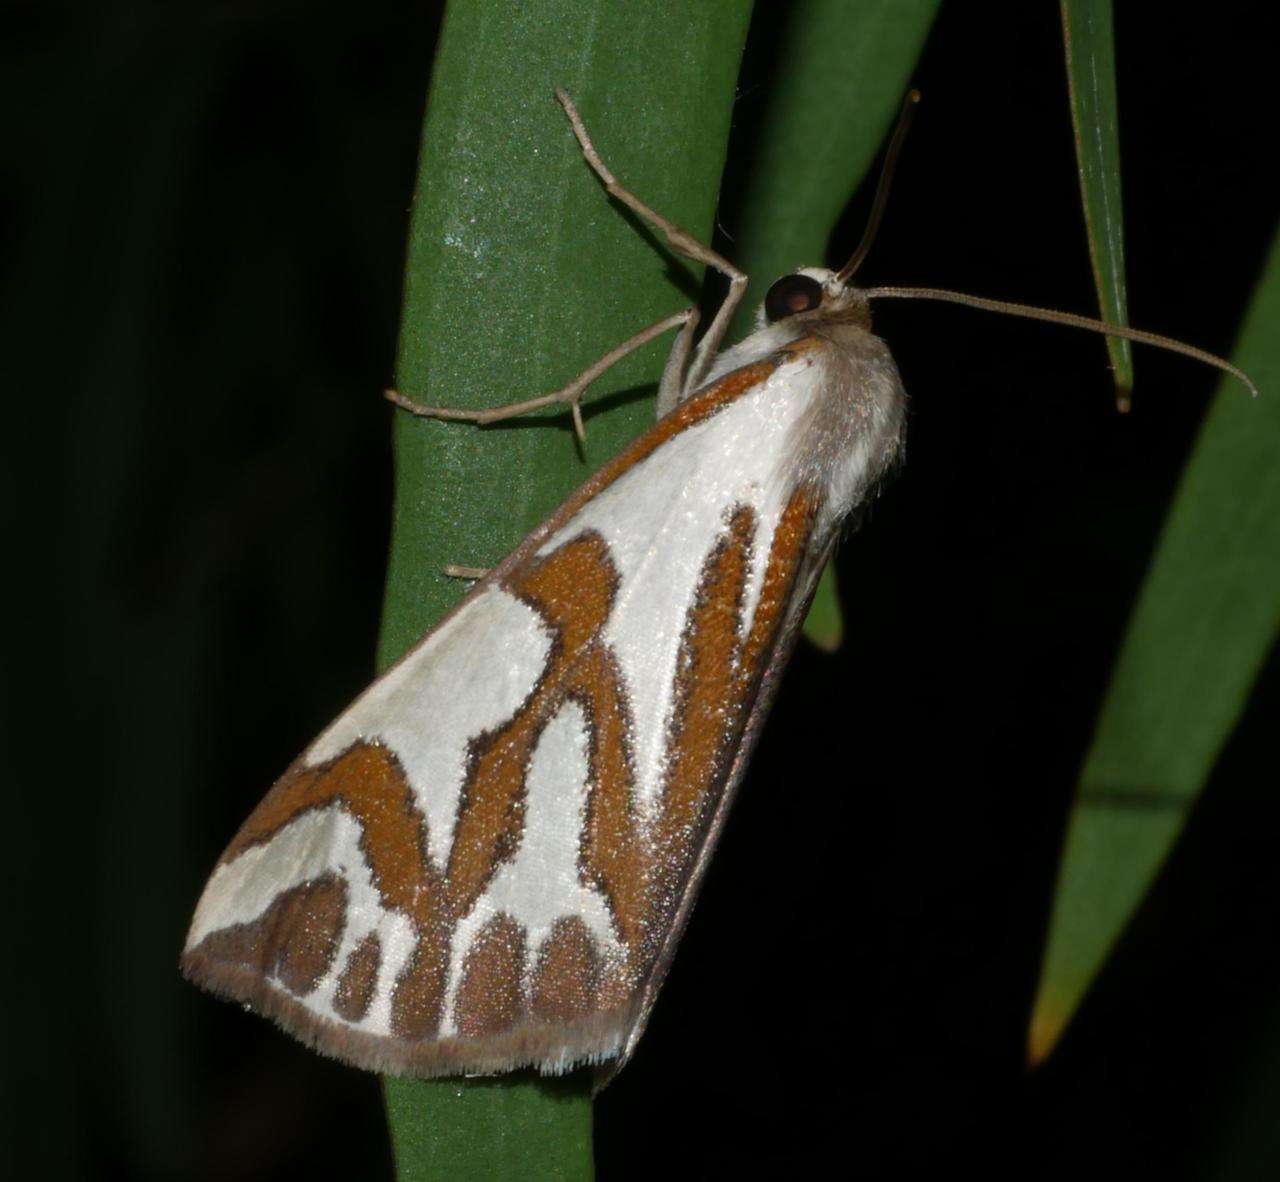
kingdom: Animalia
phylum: Arthropoda
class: Insecta
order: Lepidoptera
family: Geometridae
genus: Thalaina
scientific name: Thalaina inscripta
